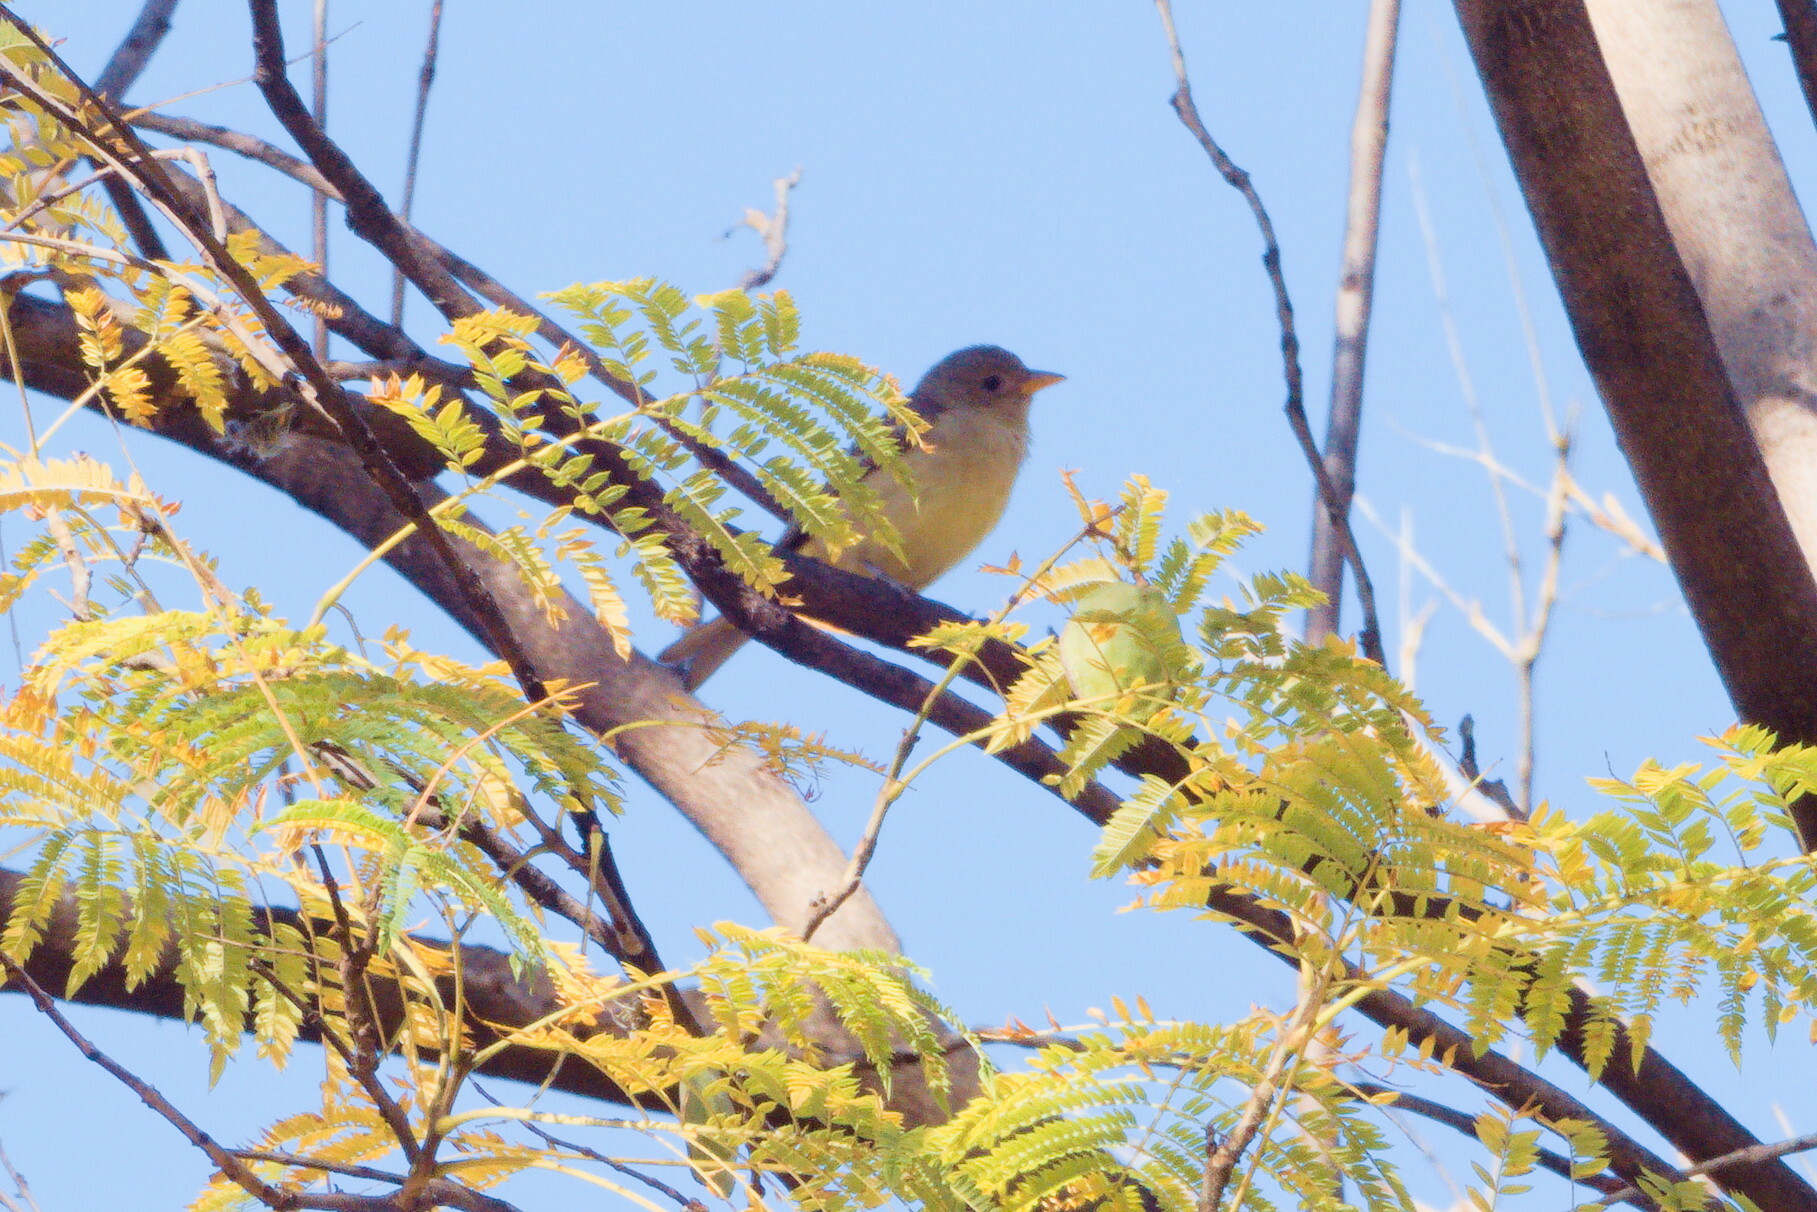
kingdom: Animalia
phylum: Chordata
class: Aves
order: Passeriformes
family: Cardinalidae
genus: Piranga
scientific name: Piranga ludoviciana
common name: Western tanager
